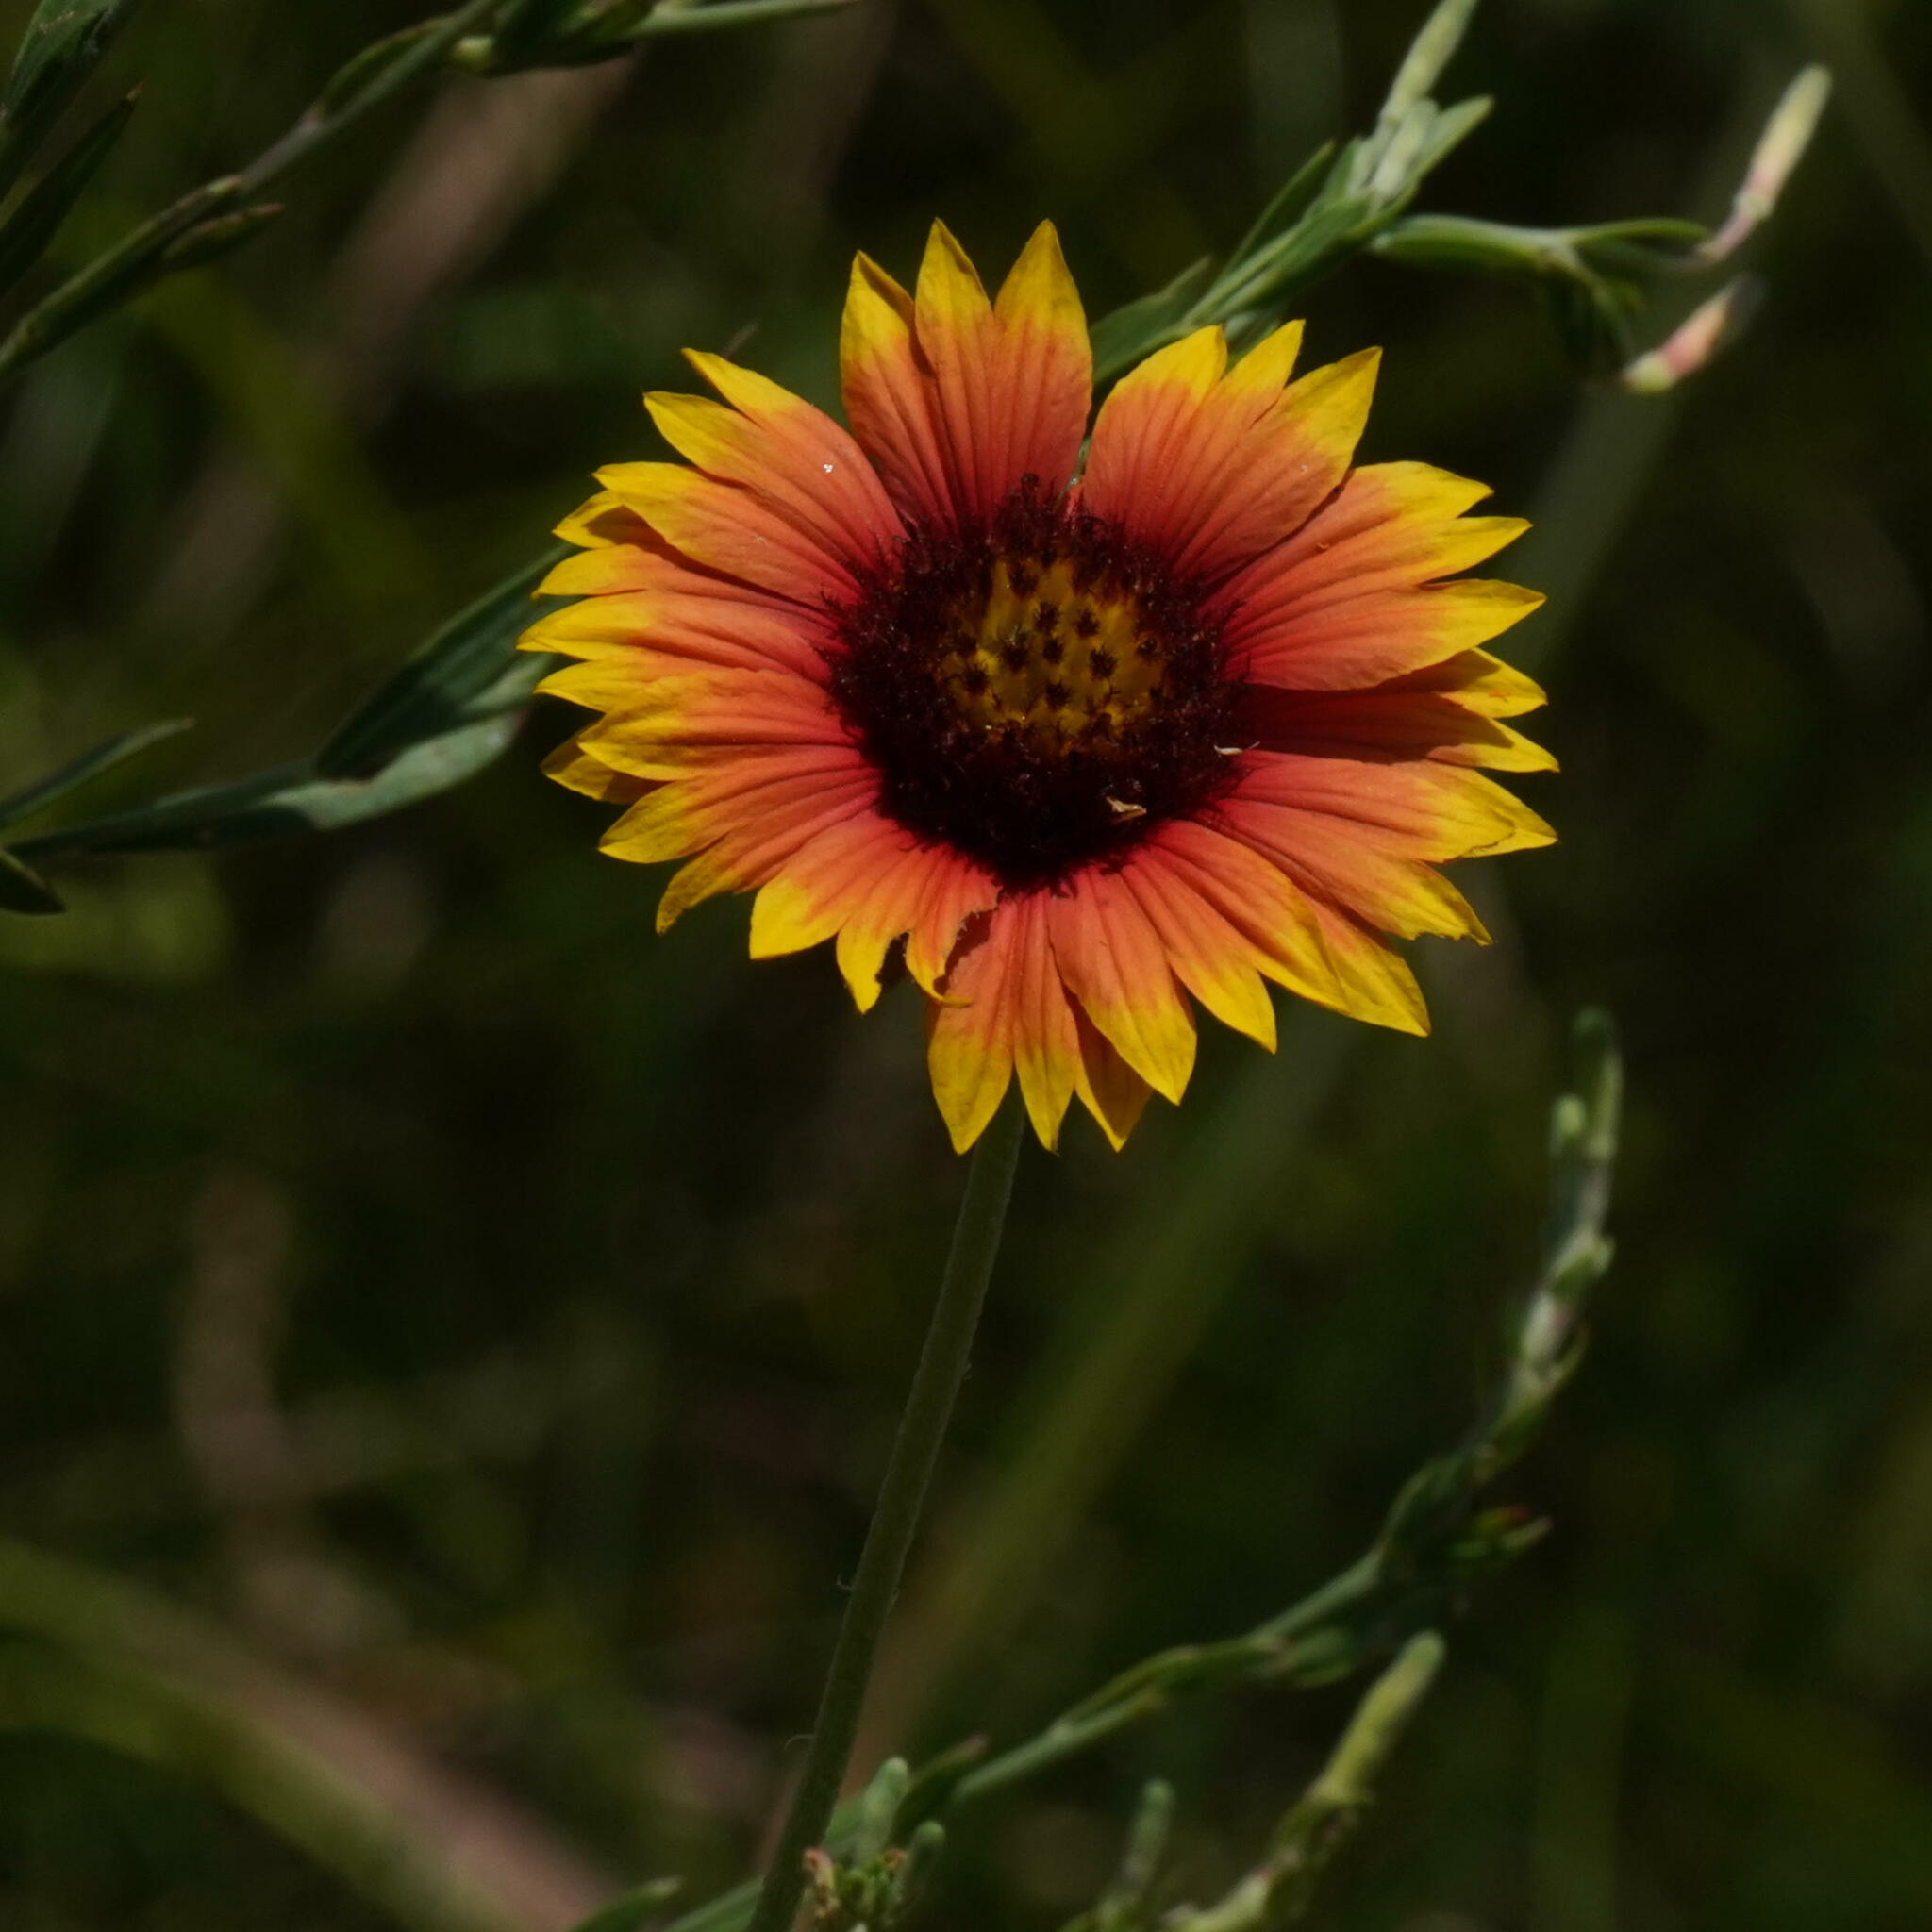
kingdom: Plantae
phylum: Tracheophyta
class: Magnoliopsida
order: Asterales
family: Asteraceae
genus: Gaillardia
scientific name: Gaillardia pulchella
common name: Firewheel
